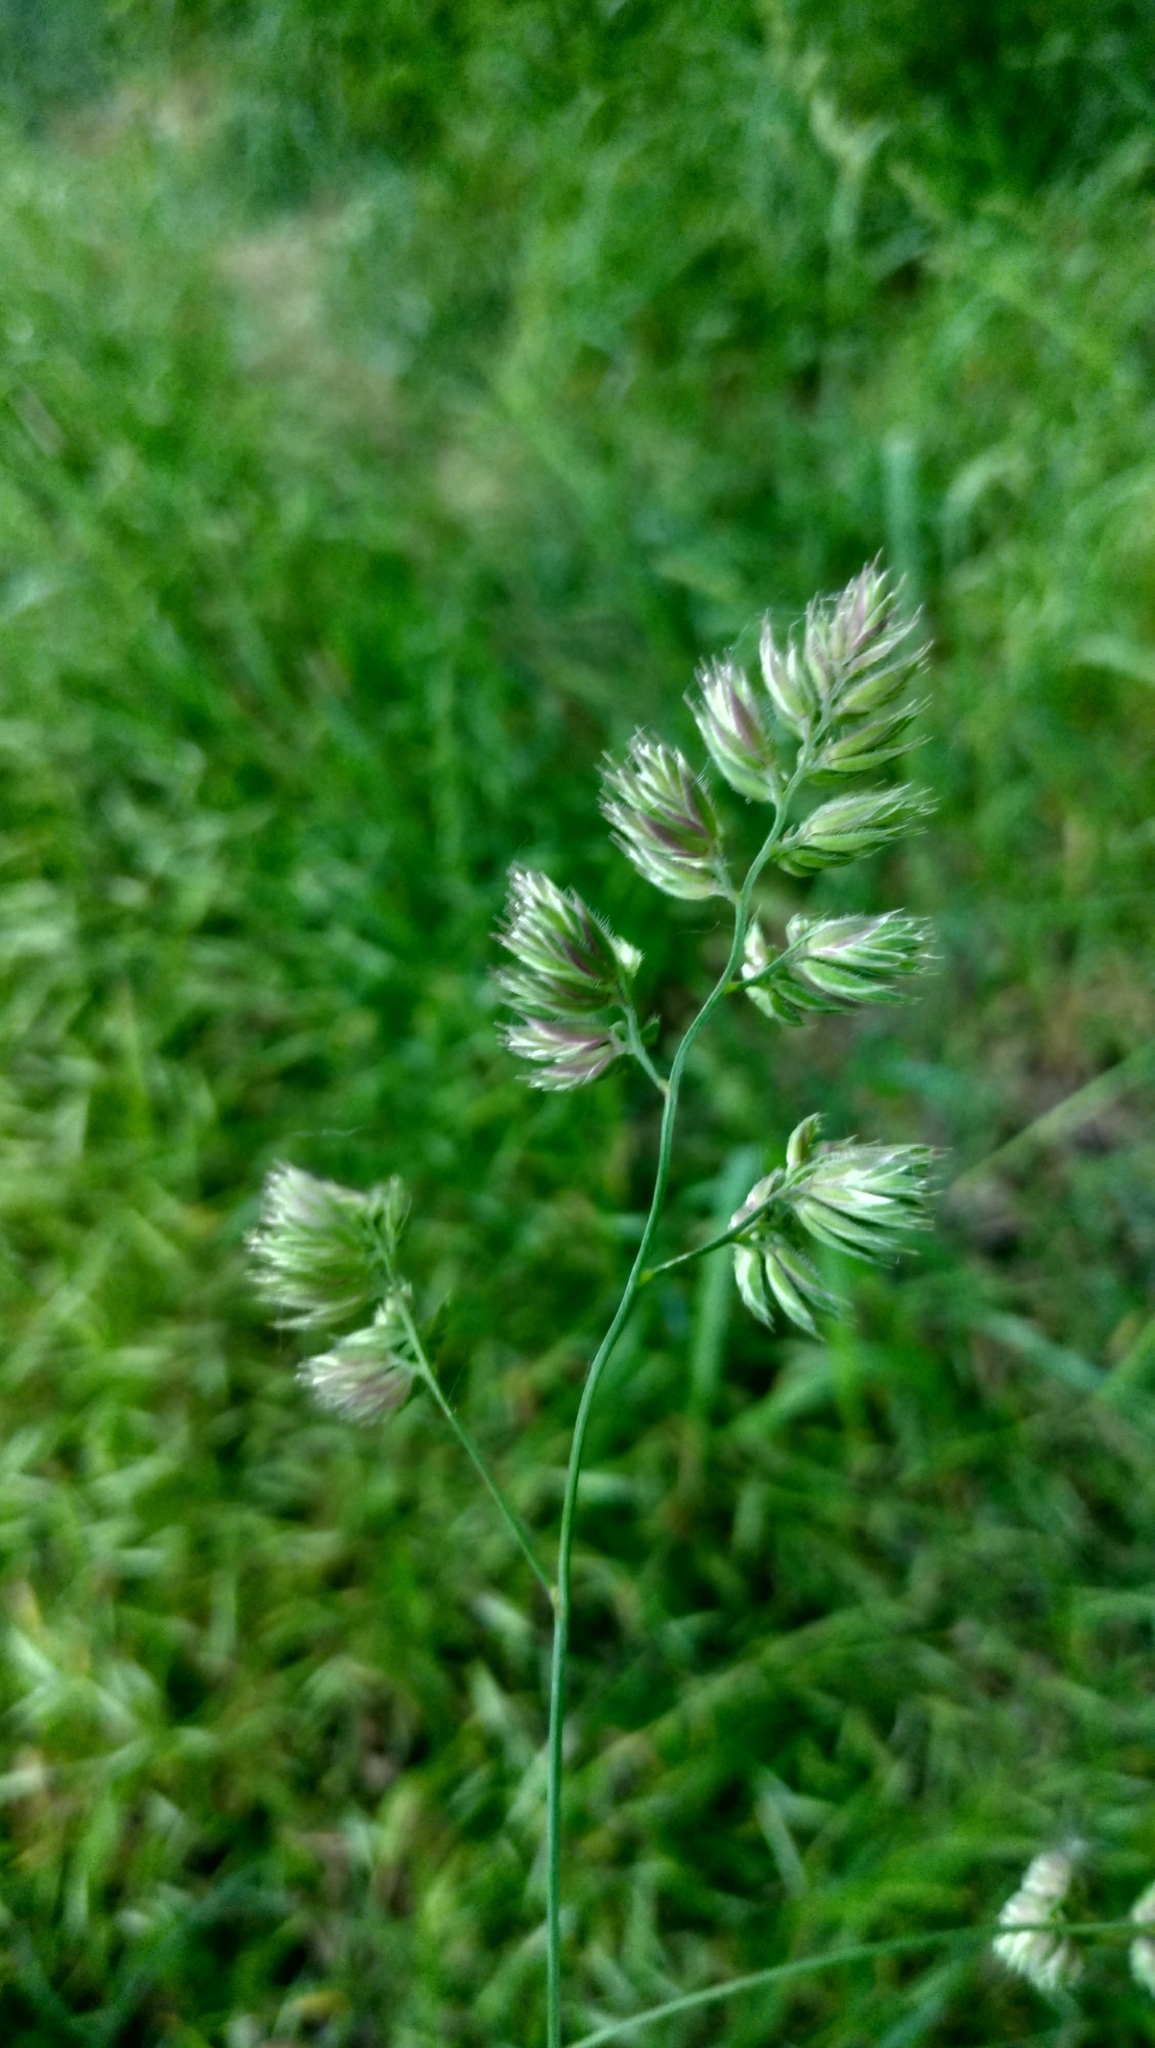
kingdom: Plantae
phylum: Tracheophyta
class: Liliopsida
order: Poales
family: Poaceae
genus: Dactylis
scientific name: Dactylis glomerata
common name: Orchardgrass
